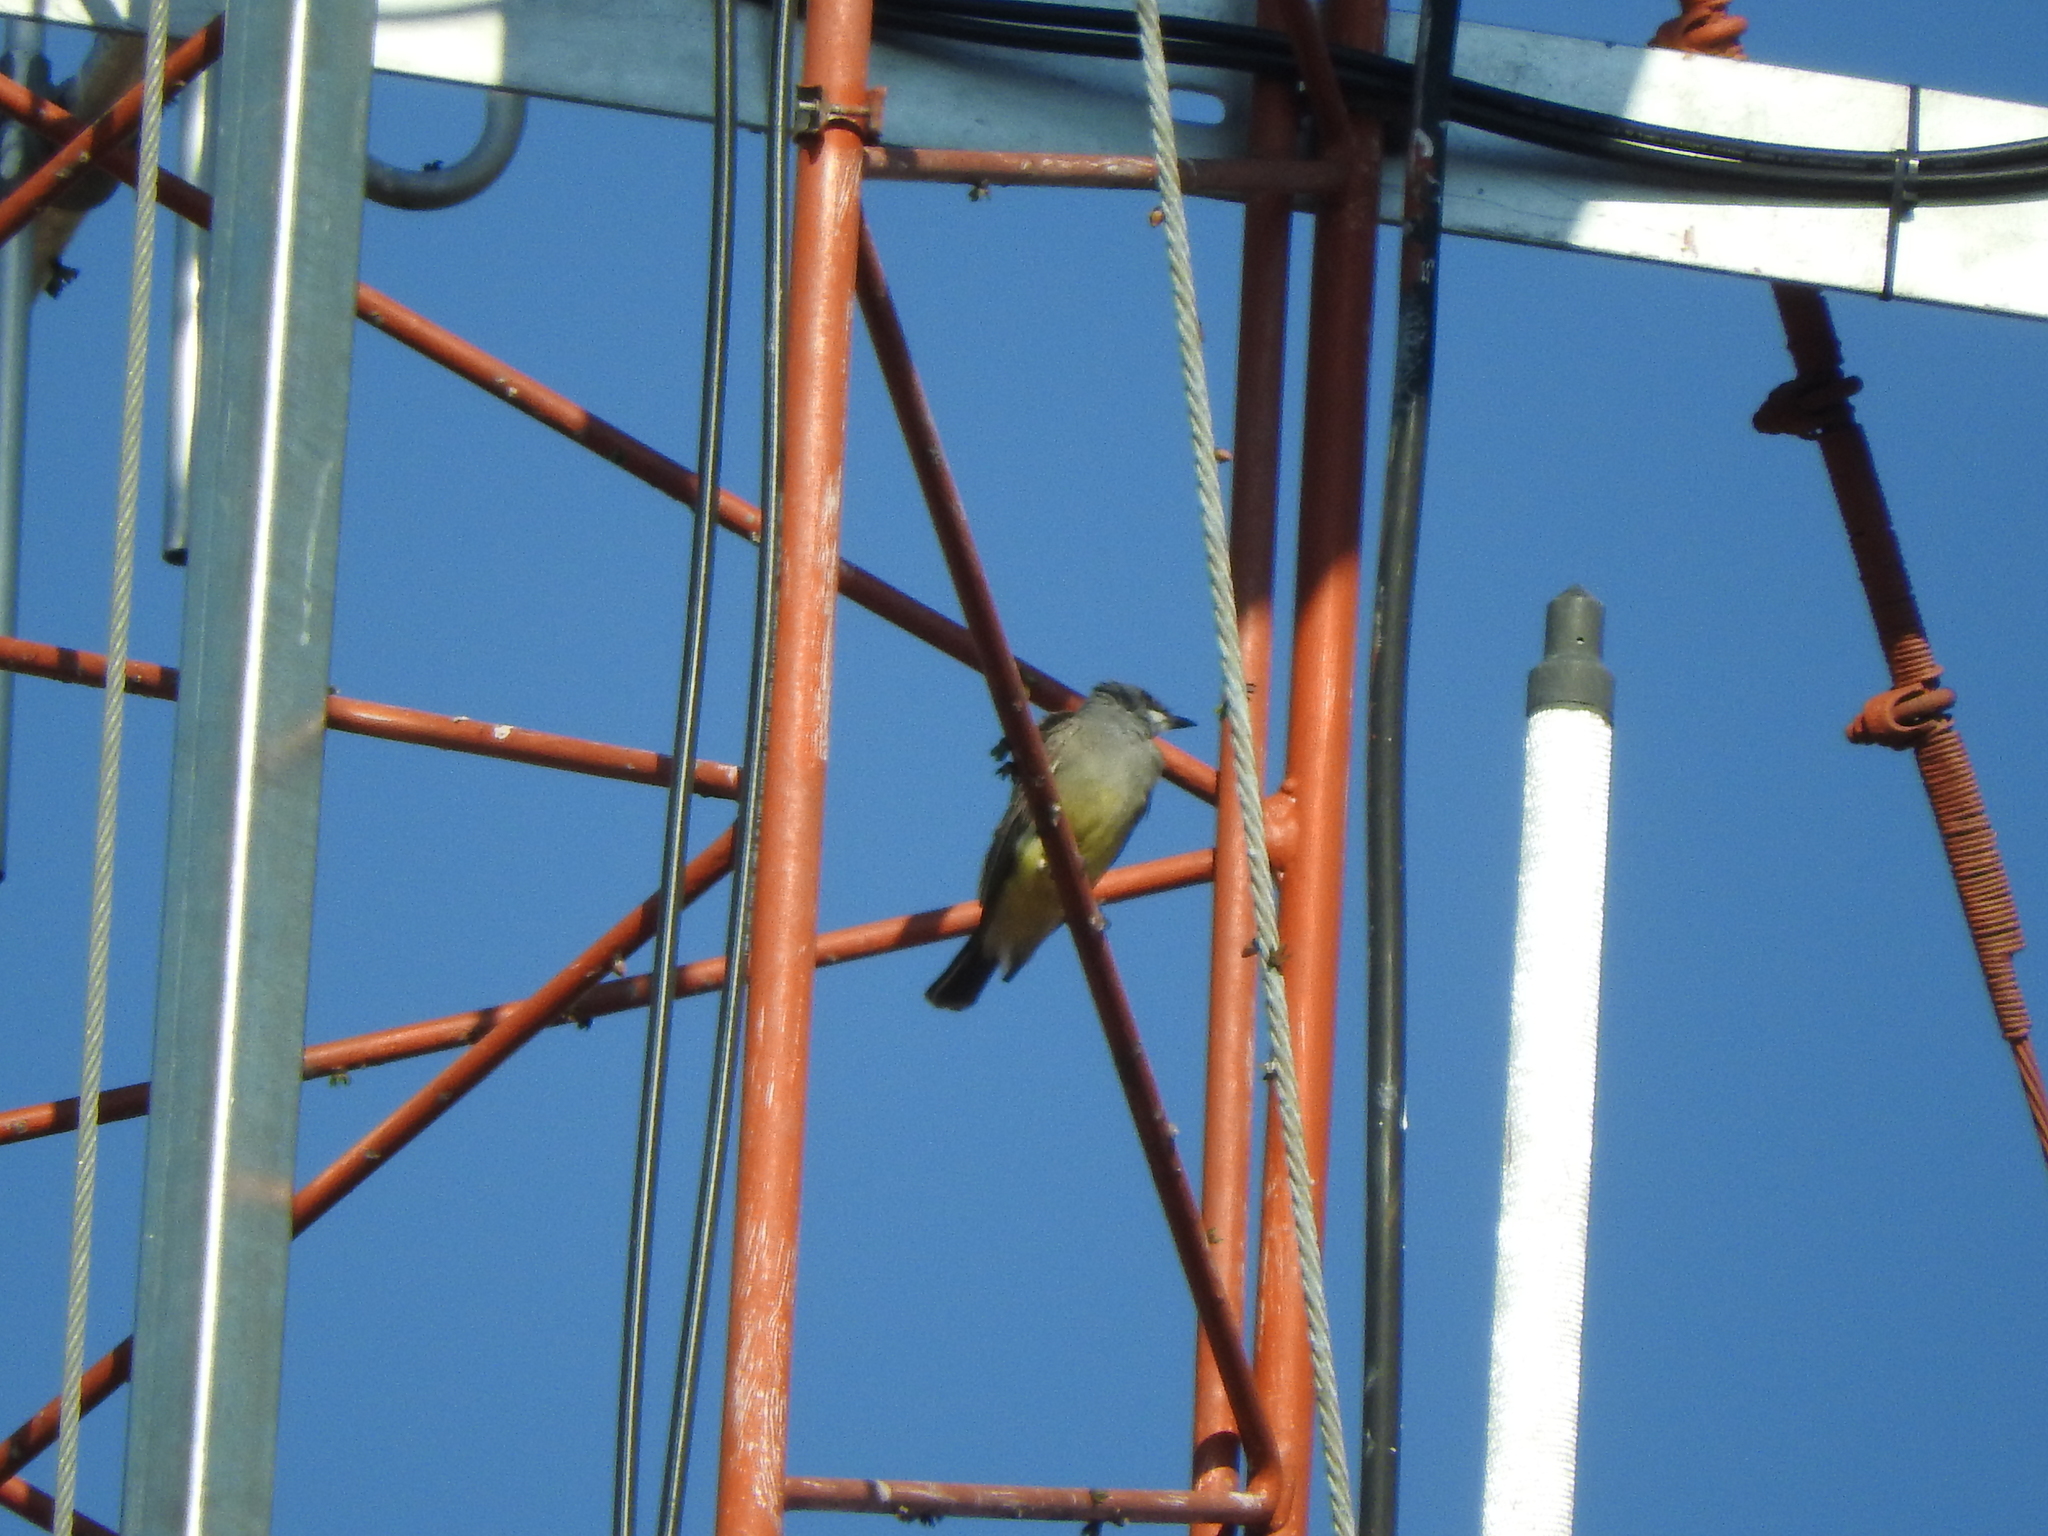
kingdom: Animalia
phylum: Chordata
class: Aves
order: Passeriformes
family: Tyrannidae
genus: Tyrannus
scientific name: Tyrannus vociferans
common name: Cassin's kingbird
